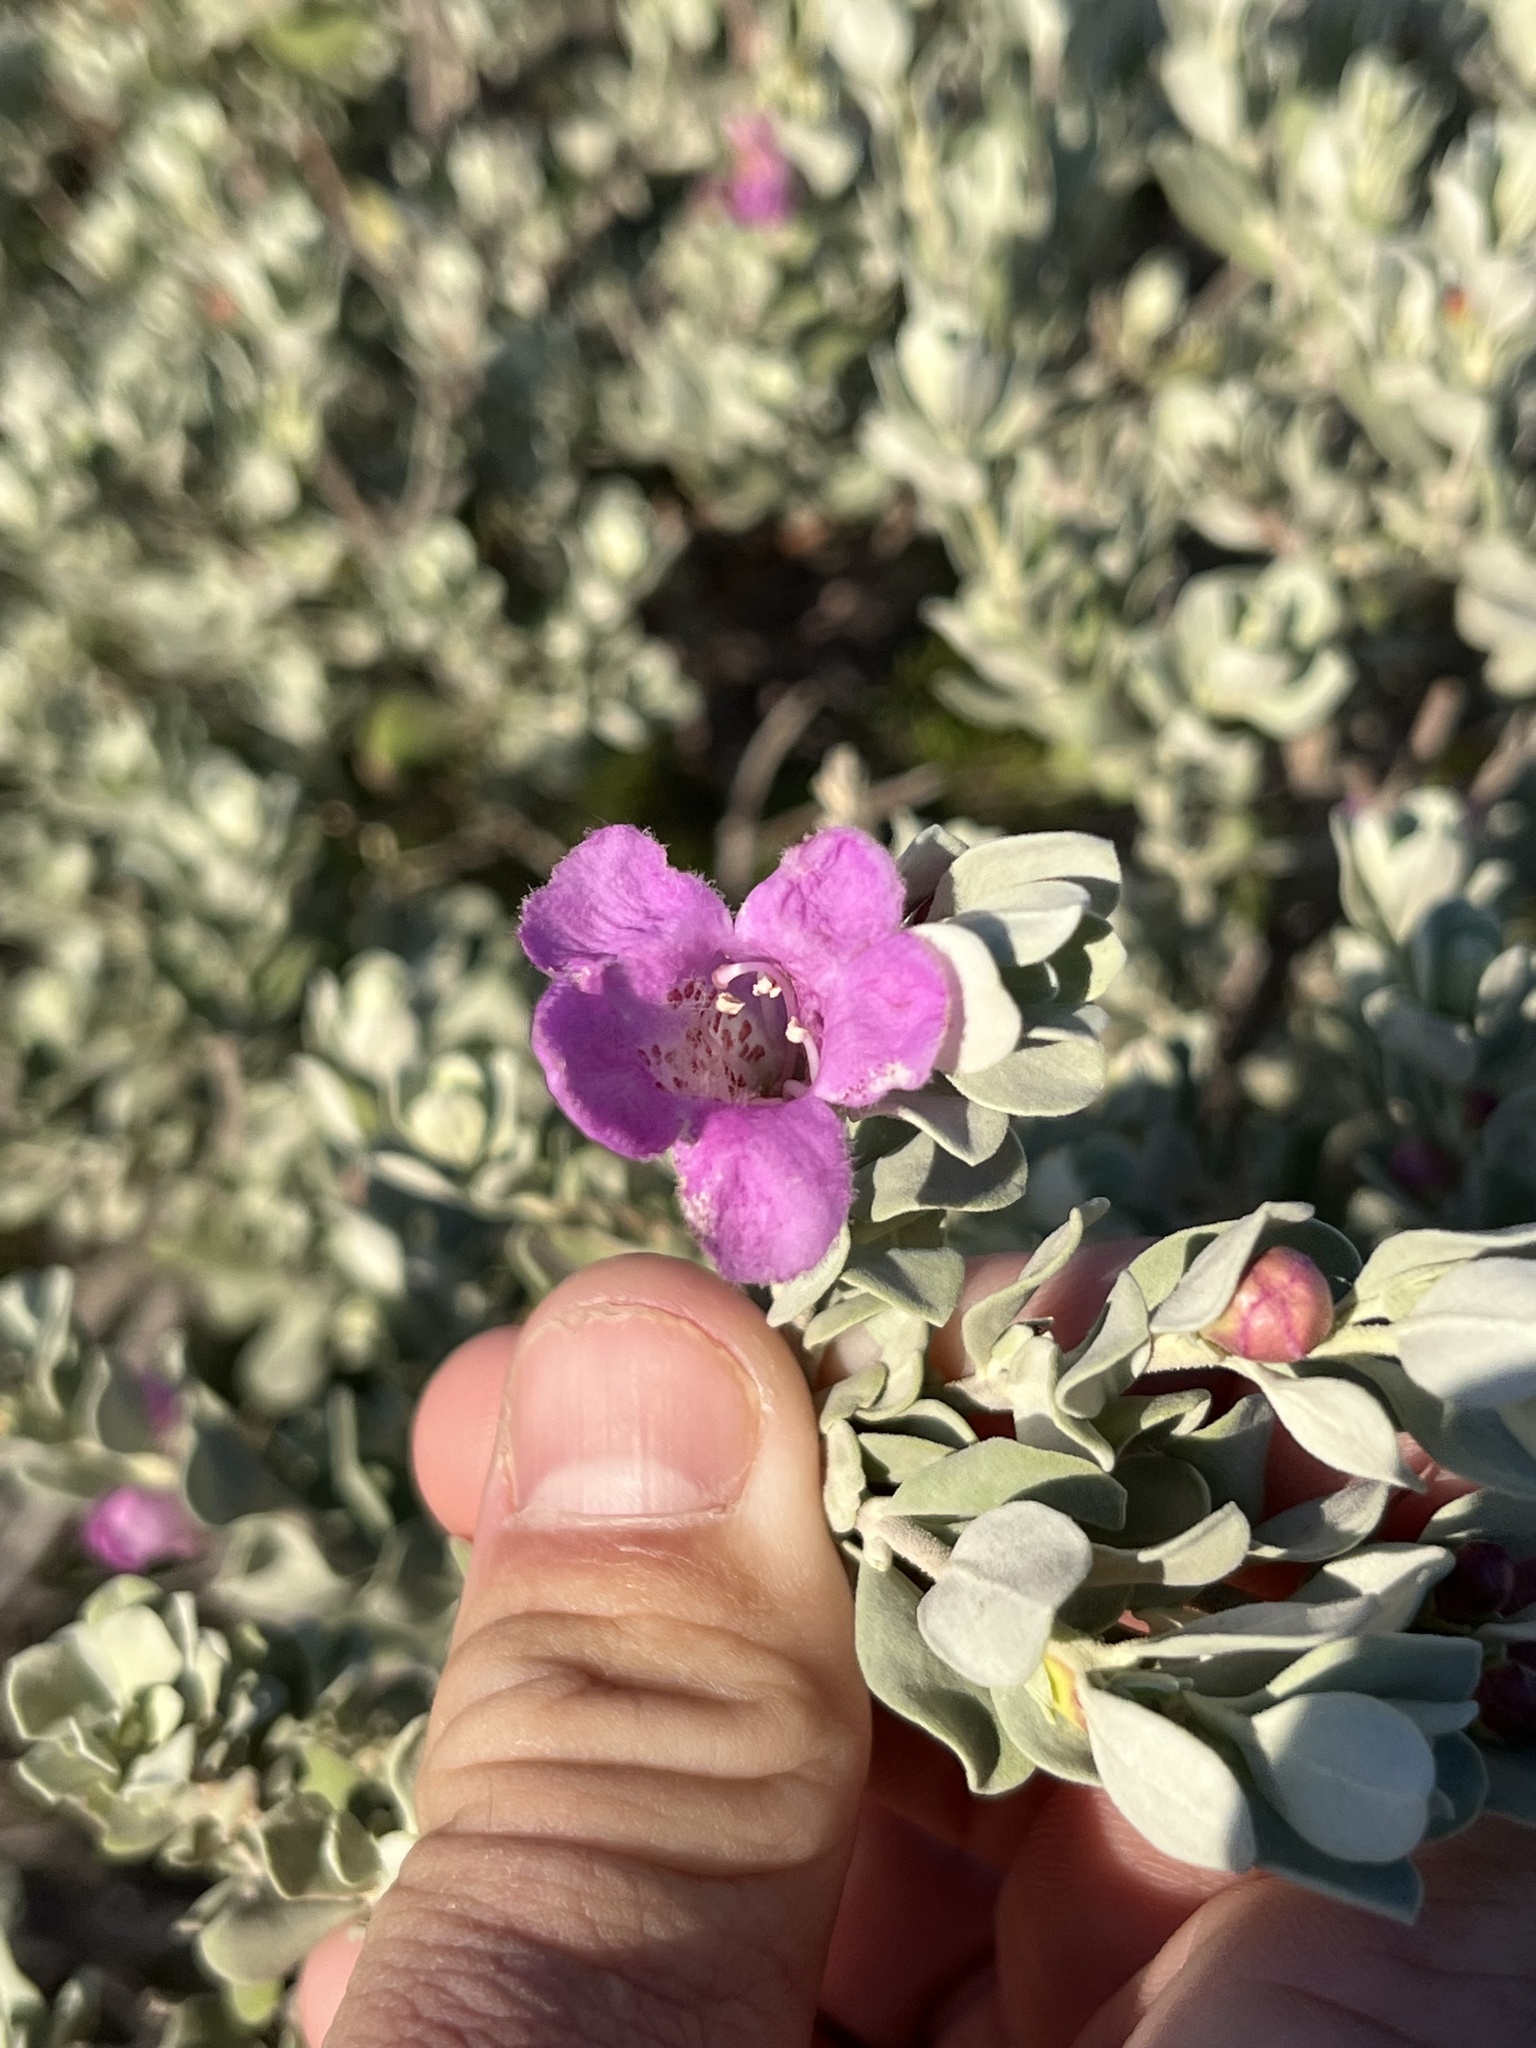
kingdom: Plantae
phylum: Tracheophyta
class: Magnoliopsida
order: Lamiales
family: Scrophulariaceae
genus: Leucophyllum
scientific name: Leucophyllum frutescens
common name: Texas silverleaf
